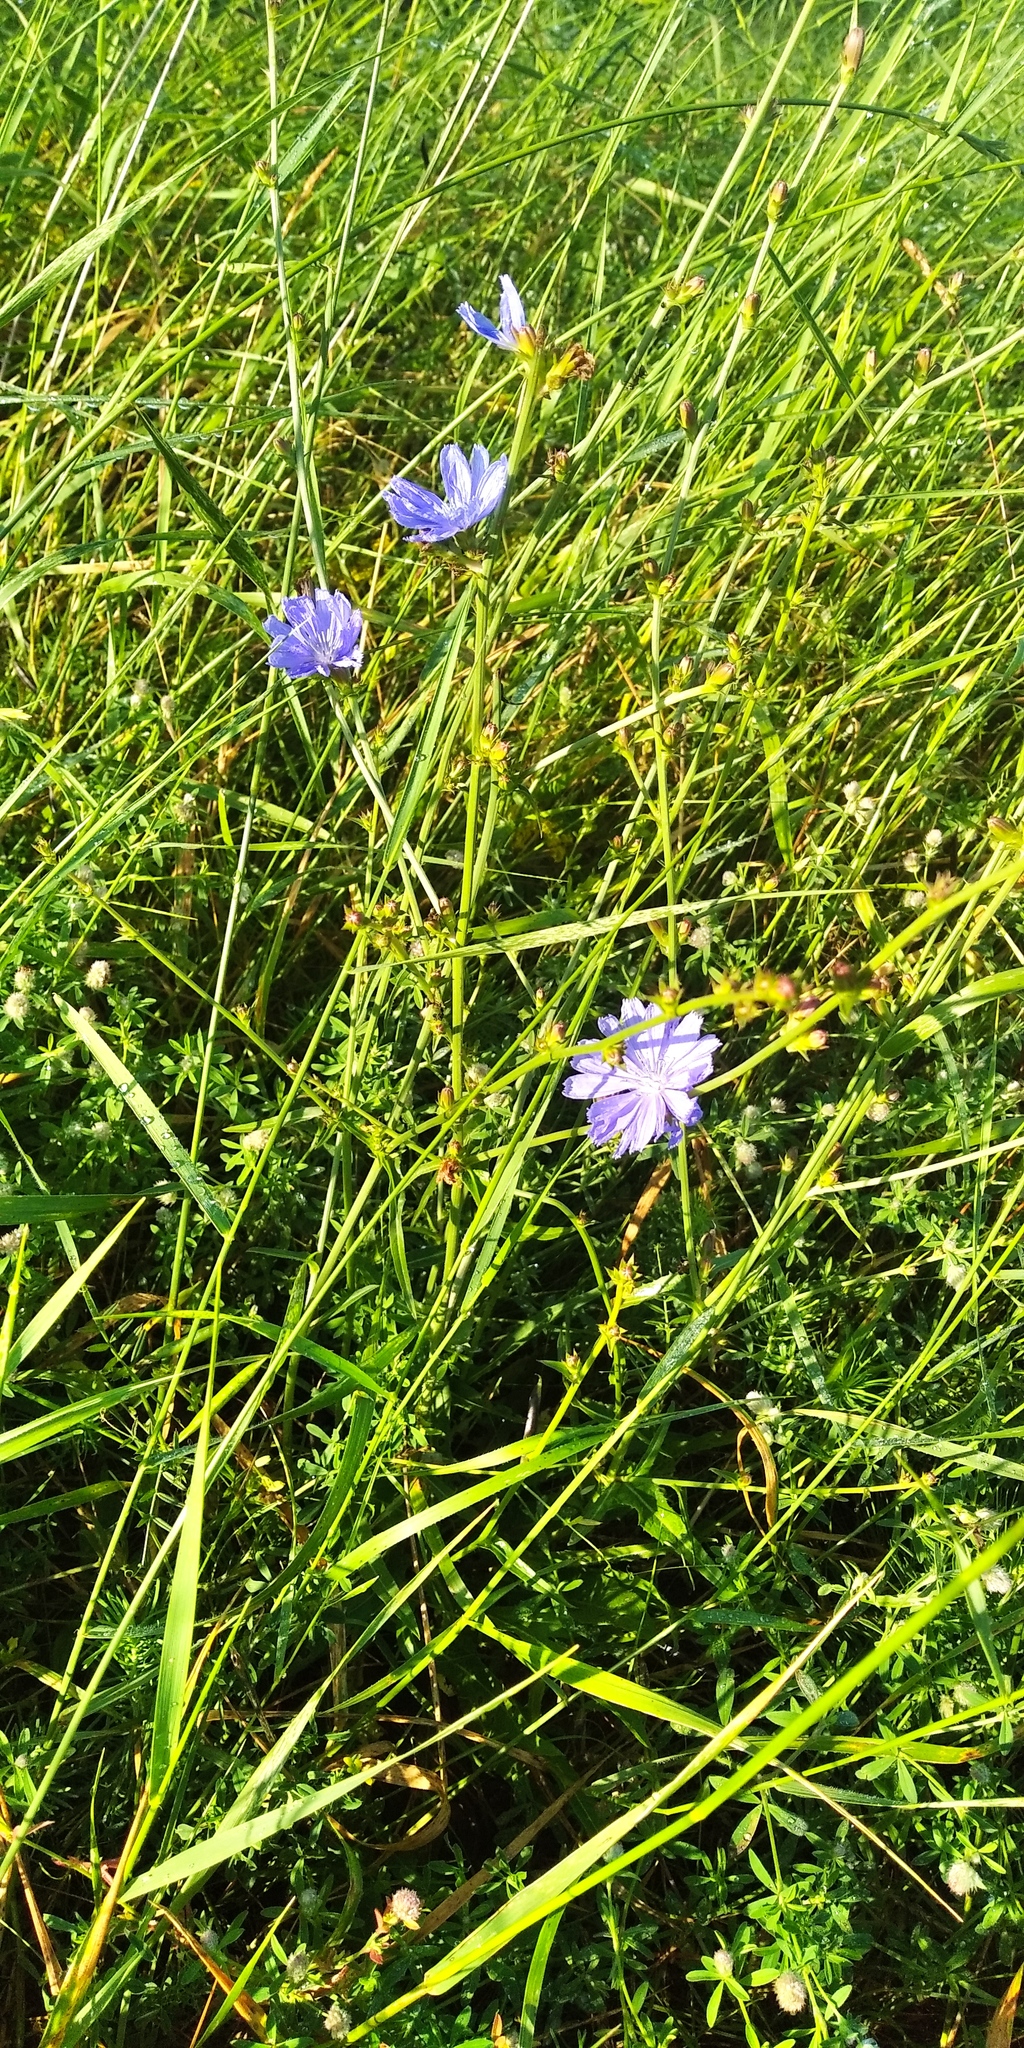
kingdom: Plantae
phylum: Tracheophyta
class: Magnoliopsida
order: Asterales
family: Asteraceae
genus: Cichorium
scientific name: Cichorium intybus
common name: Chicory
